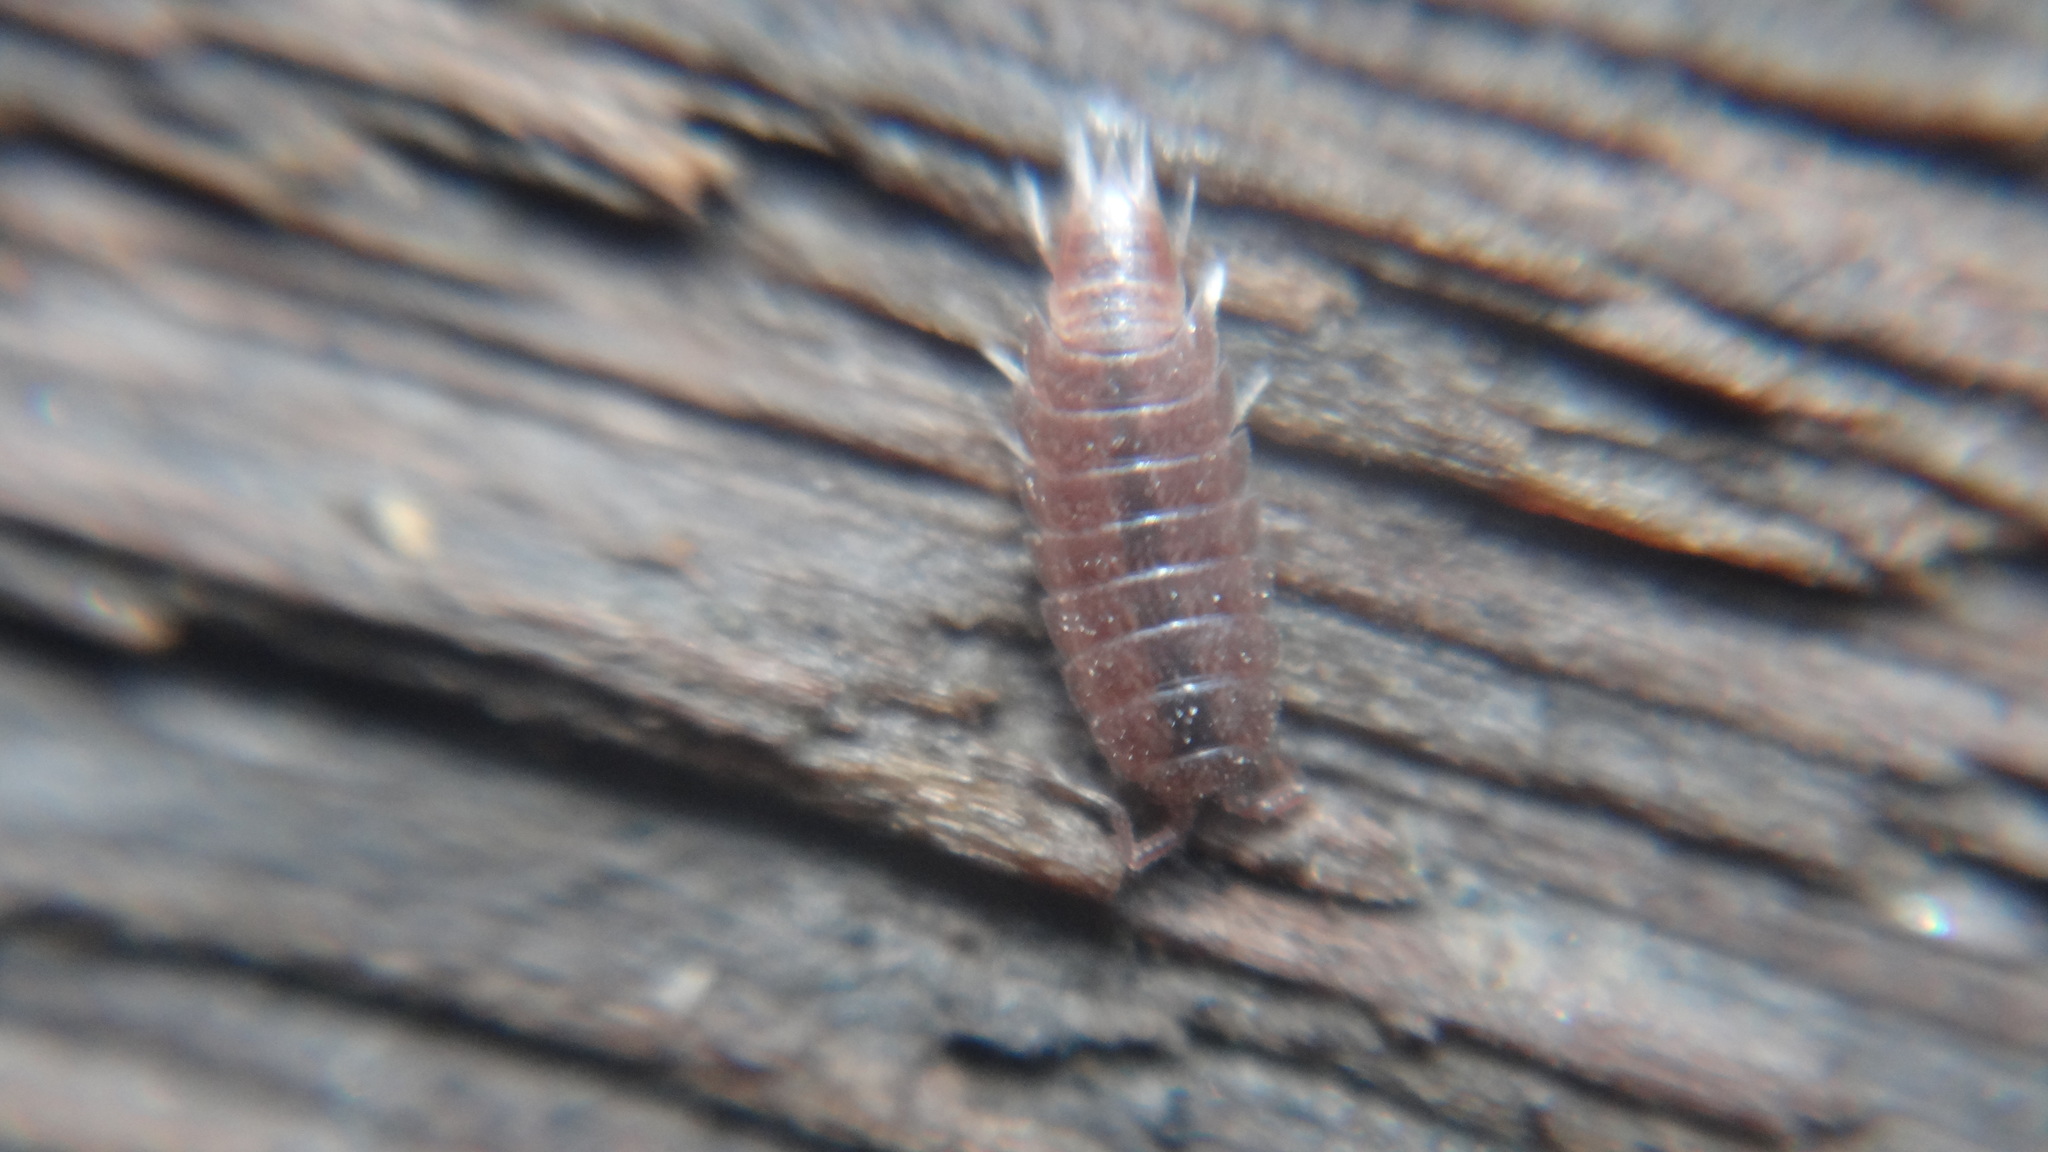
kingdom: Animalia
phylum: Arthropoda
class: Malacostraca
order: Isopoda
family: Trichoniscidae
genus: Hyloniscus
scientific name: Hyloniscus riparius
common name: Isopod
